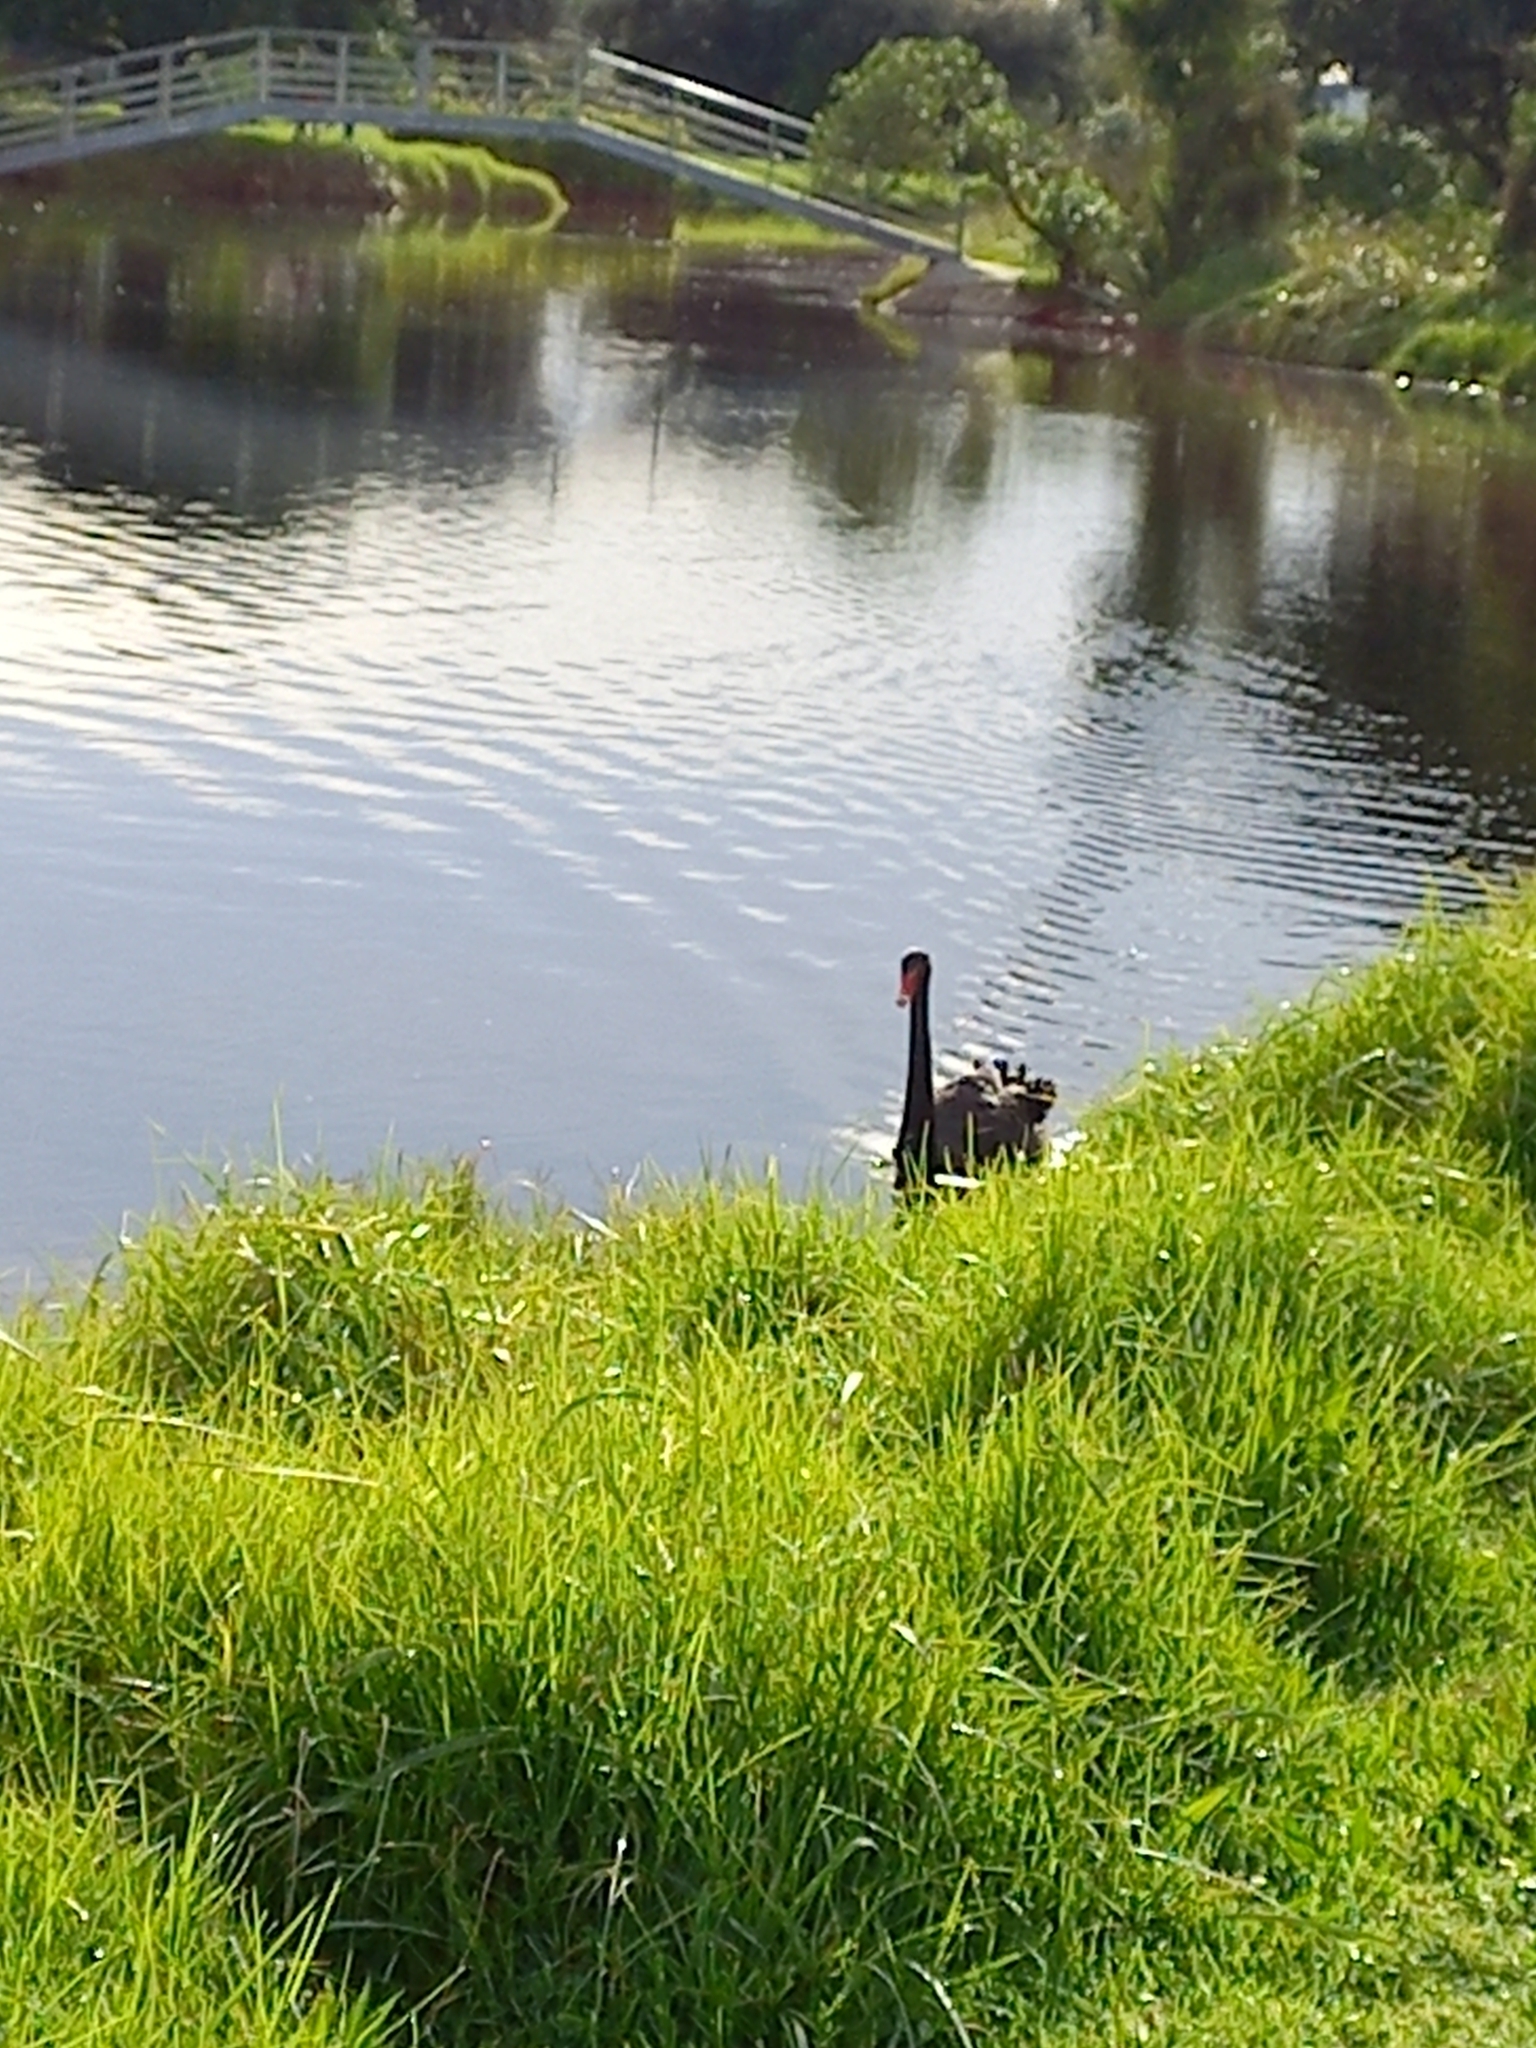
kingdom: Animalia
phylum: Chordata
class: Aves
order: Anseriformes
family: Anatidae
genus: Cygnus
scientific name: Cygnus atratus
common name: Black swan
